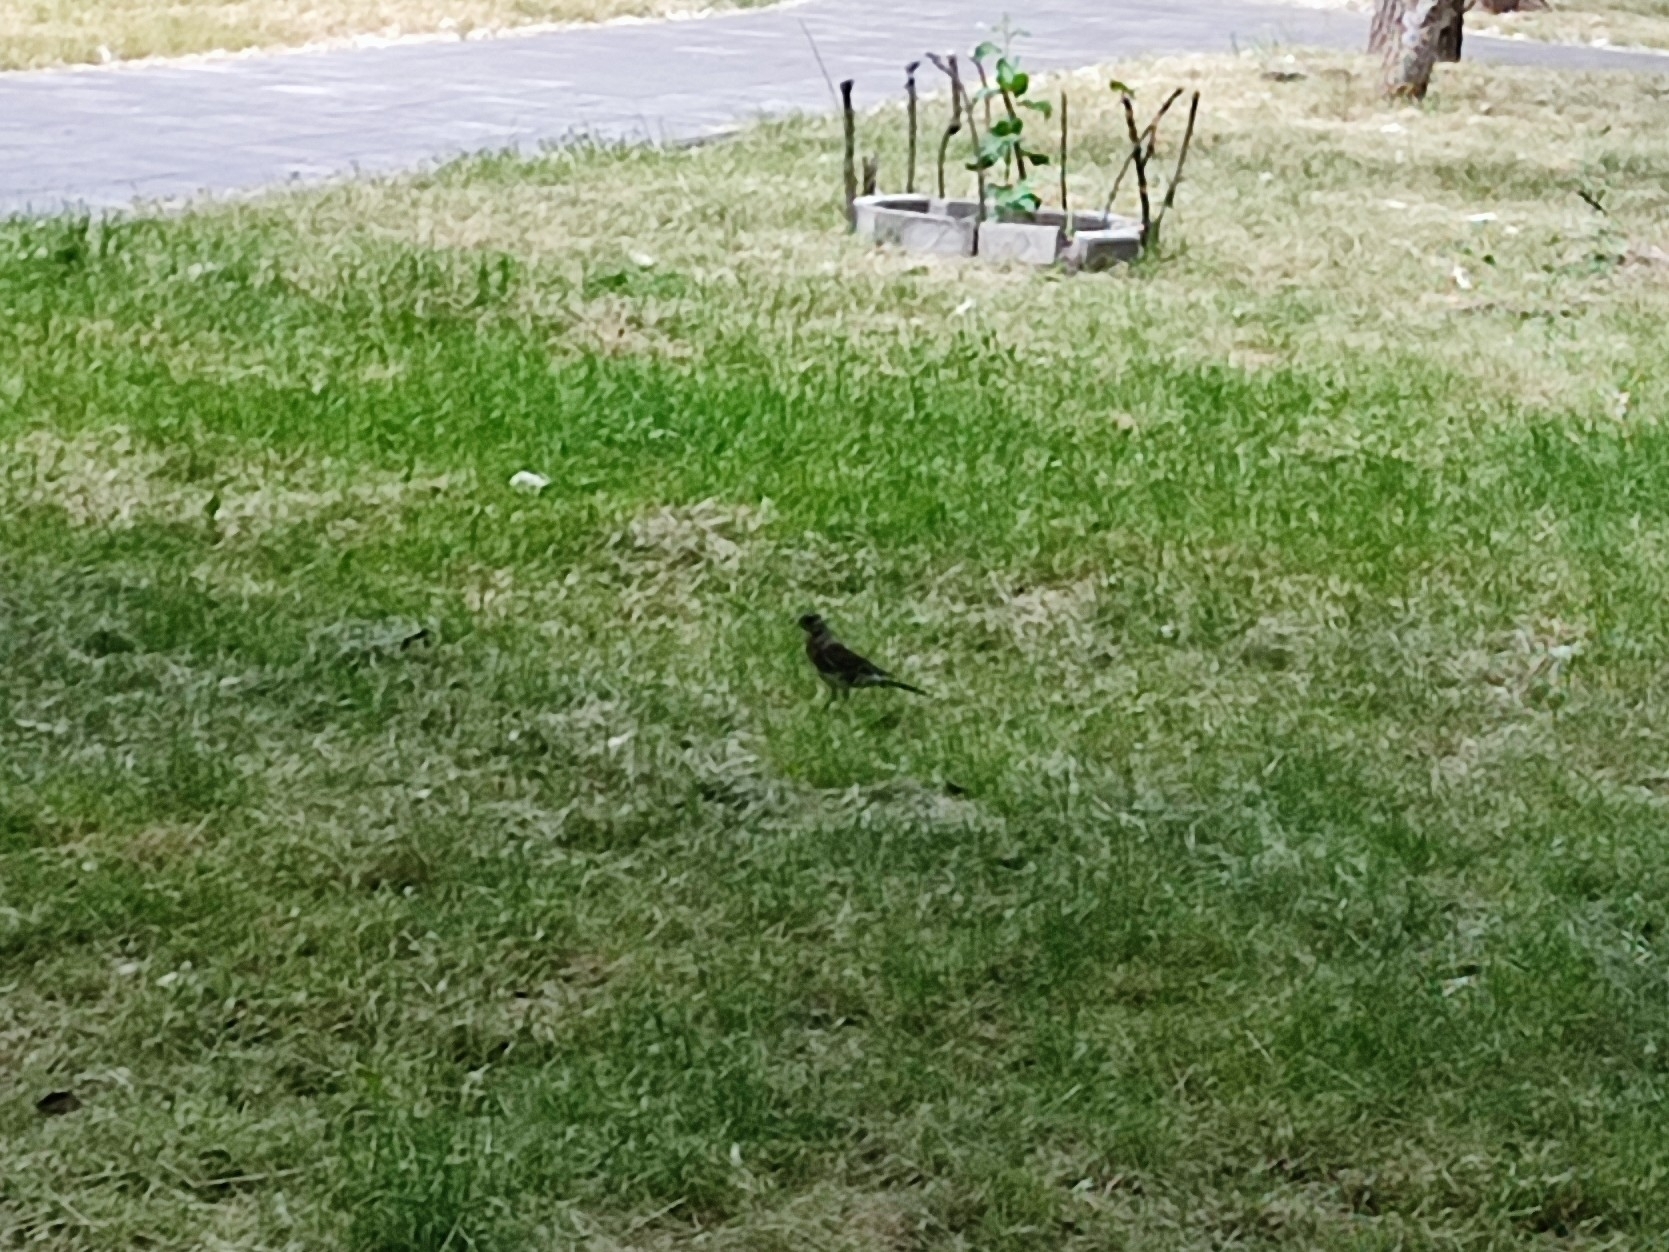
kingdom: Animalia
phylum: Chordata
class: Aves
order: Passeriformes
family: Turdidae
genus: Turdus
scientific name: Turdus pilaris
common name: Fieldfare
